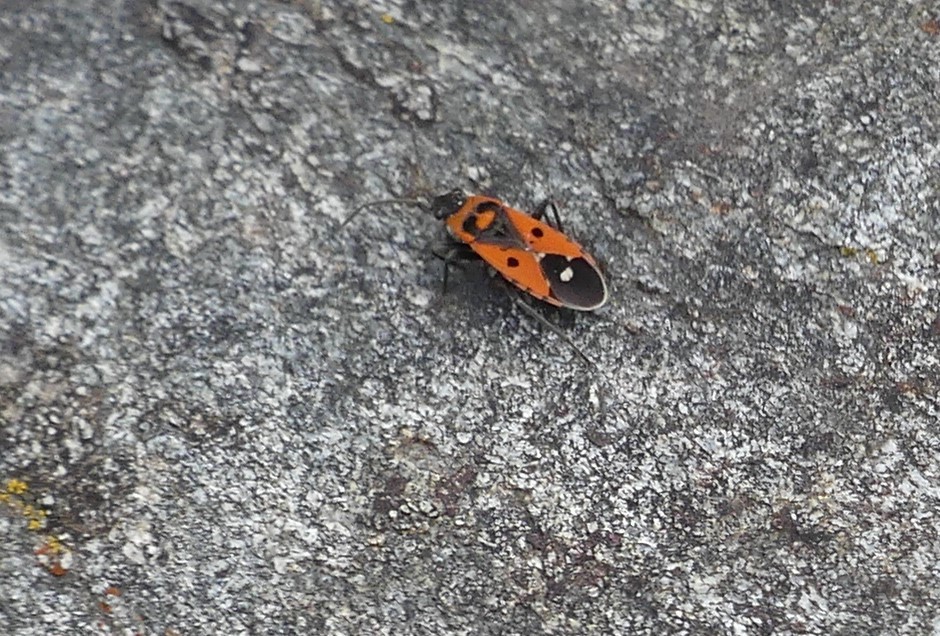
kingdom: Animalia
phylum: Arthropoda
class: Insecta
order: Hemiptera
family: Lygaeidae
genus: Melanocoryphus
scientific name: Melanocoryphus albomaculatus
